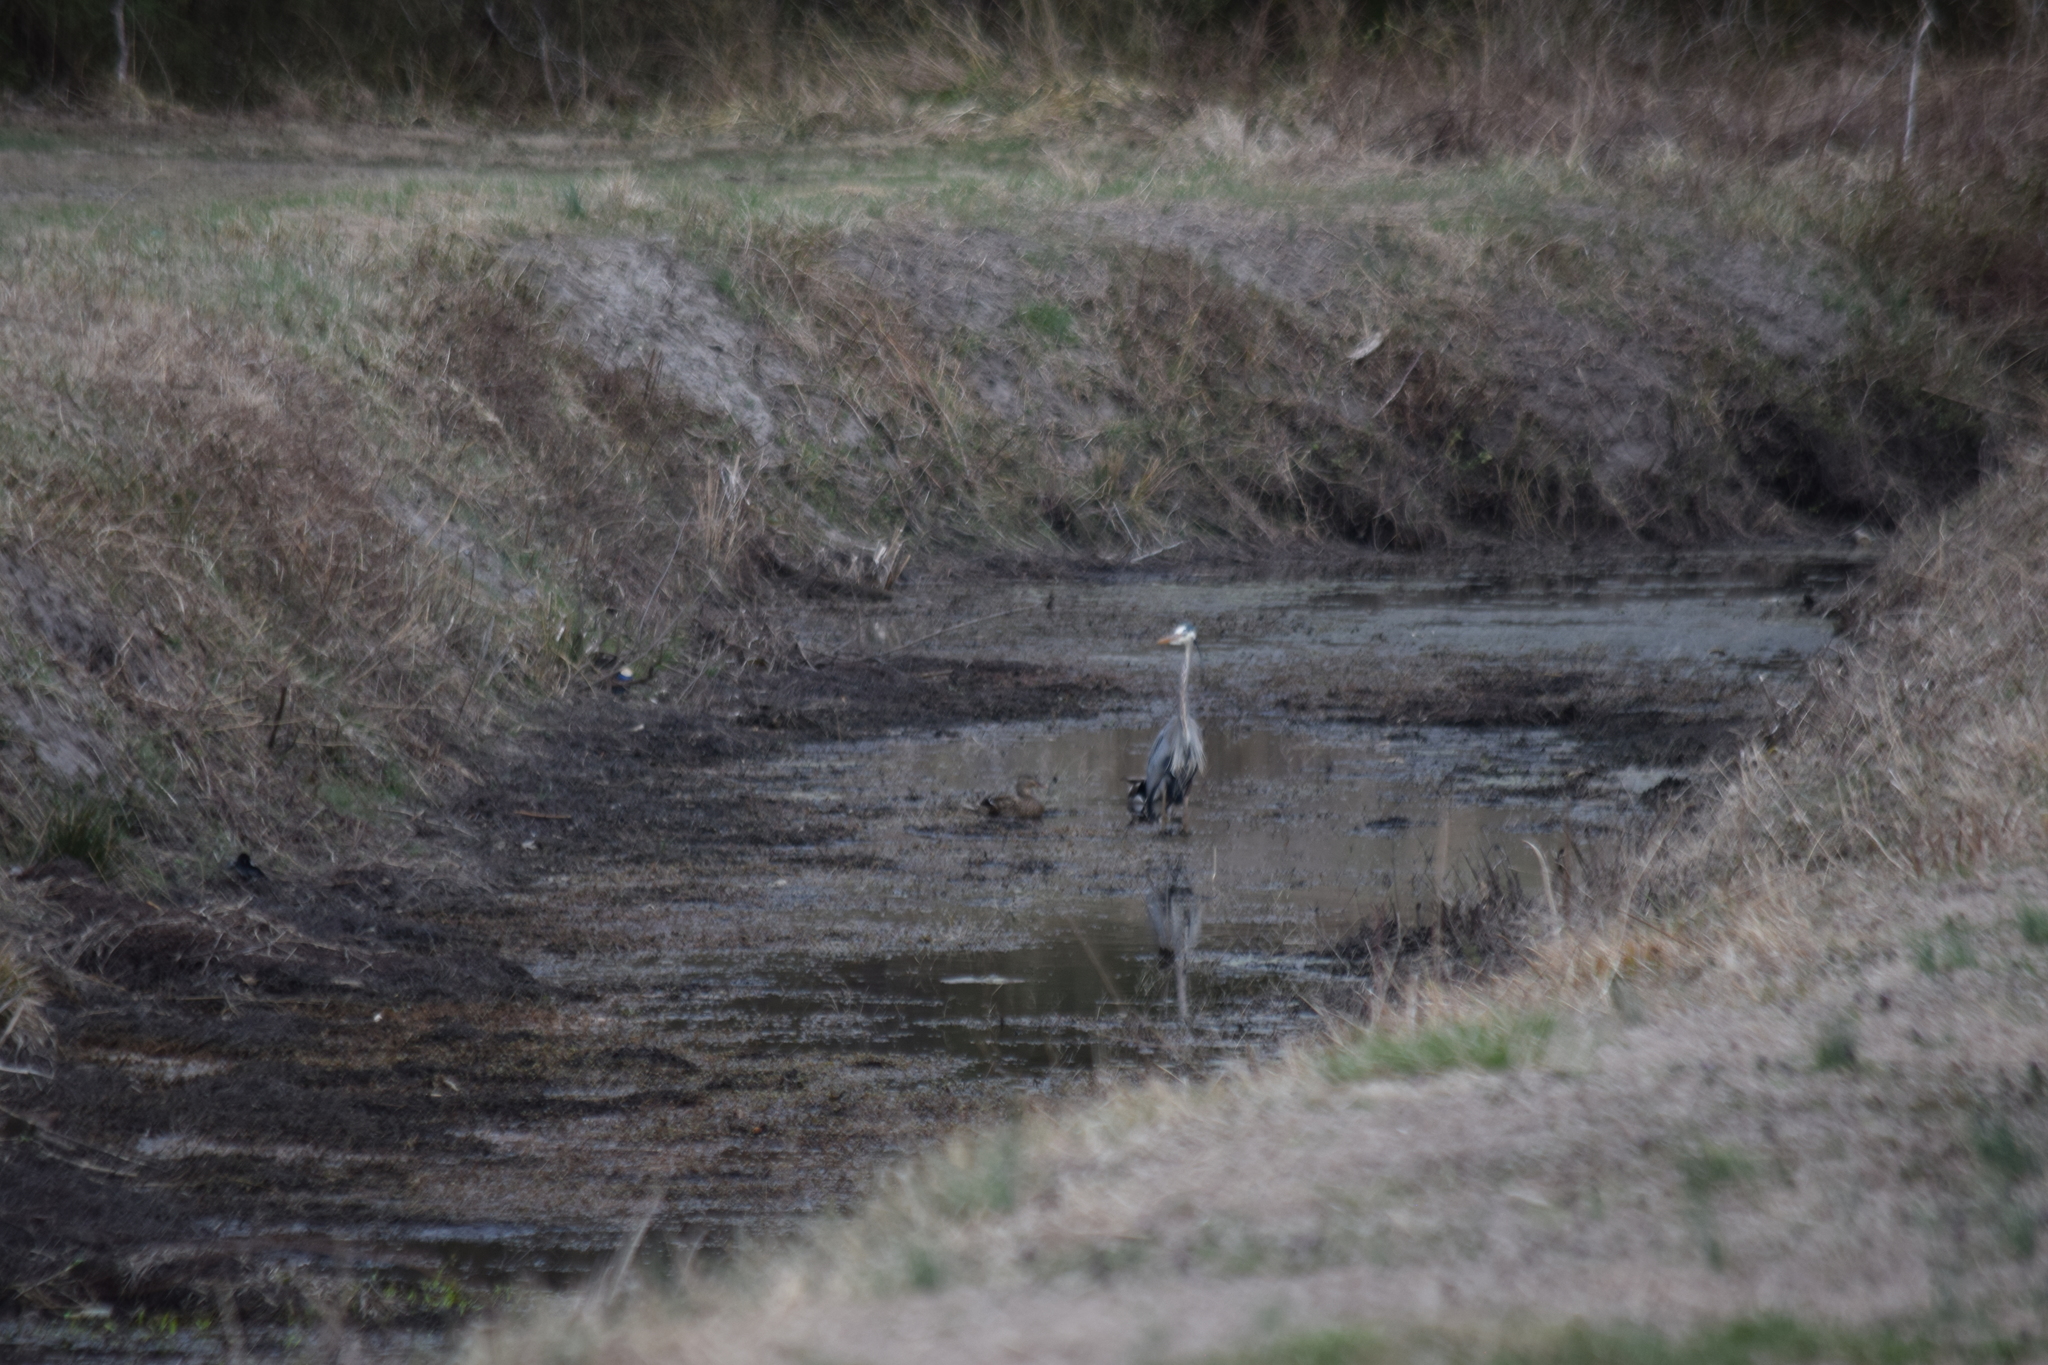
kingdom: Animalia
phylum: Chordata
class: Aves
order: Pelecaniformes
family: Ardeidae
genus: Ardea
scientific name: Ardea herodias
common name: Great blue heron
